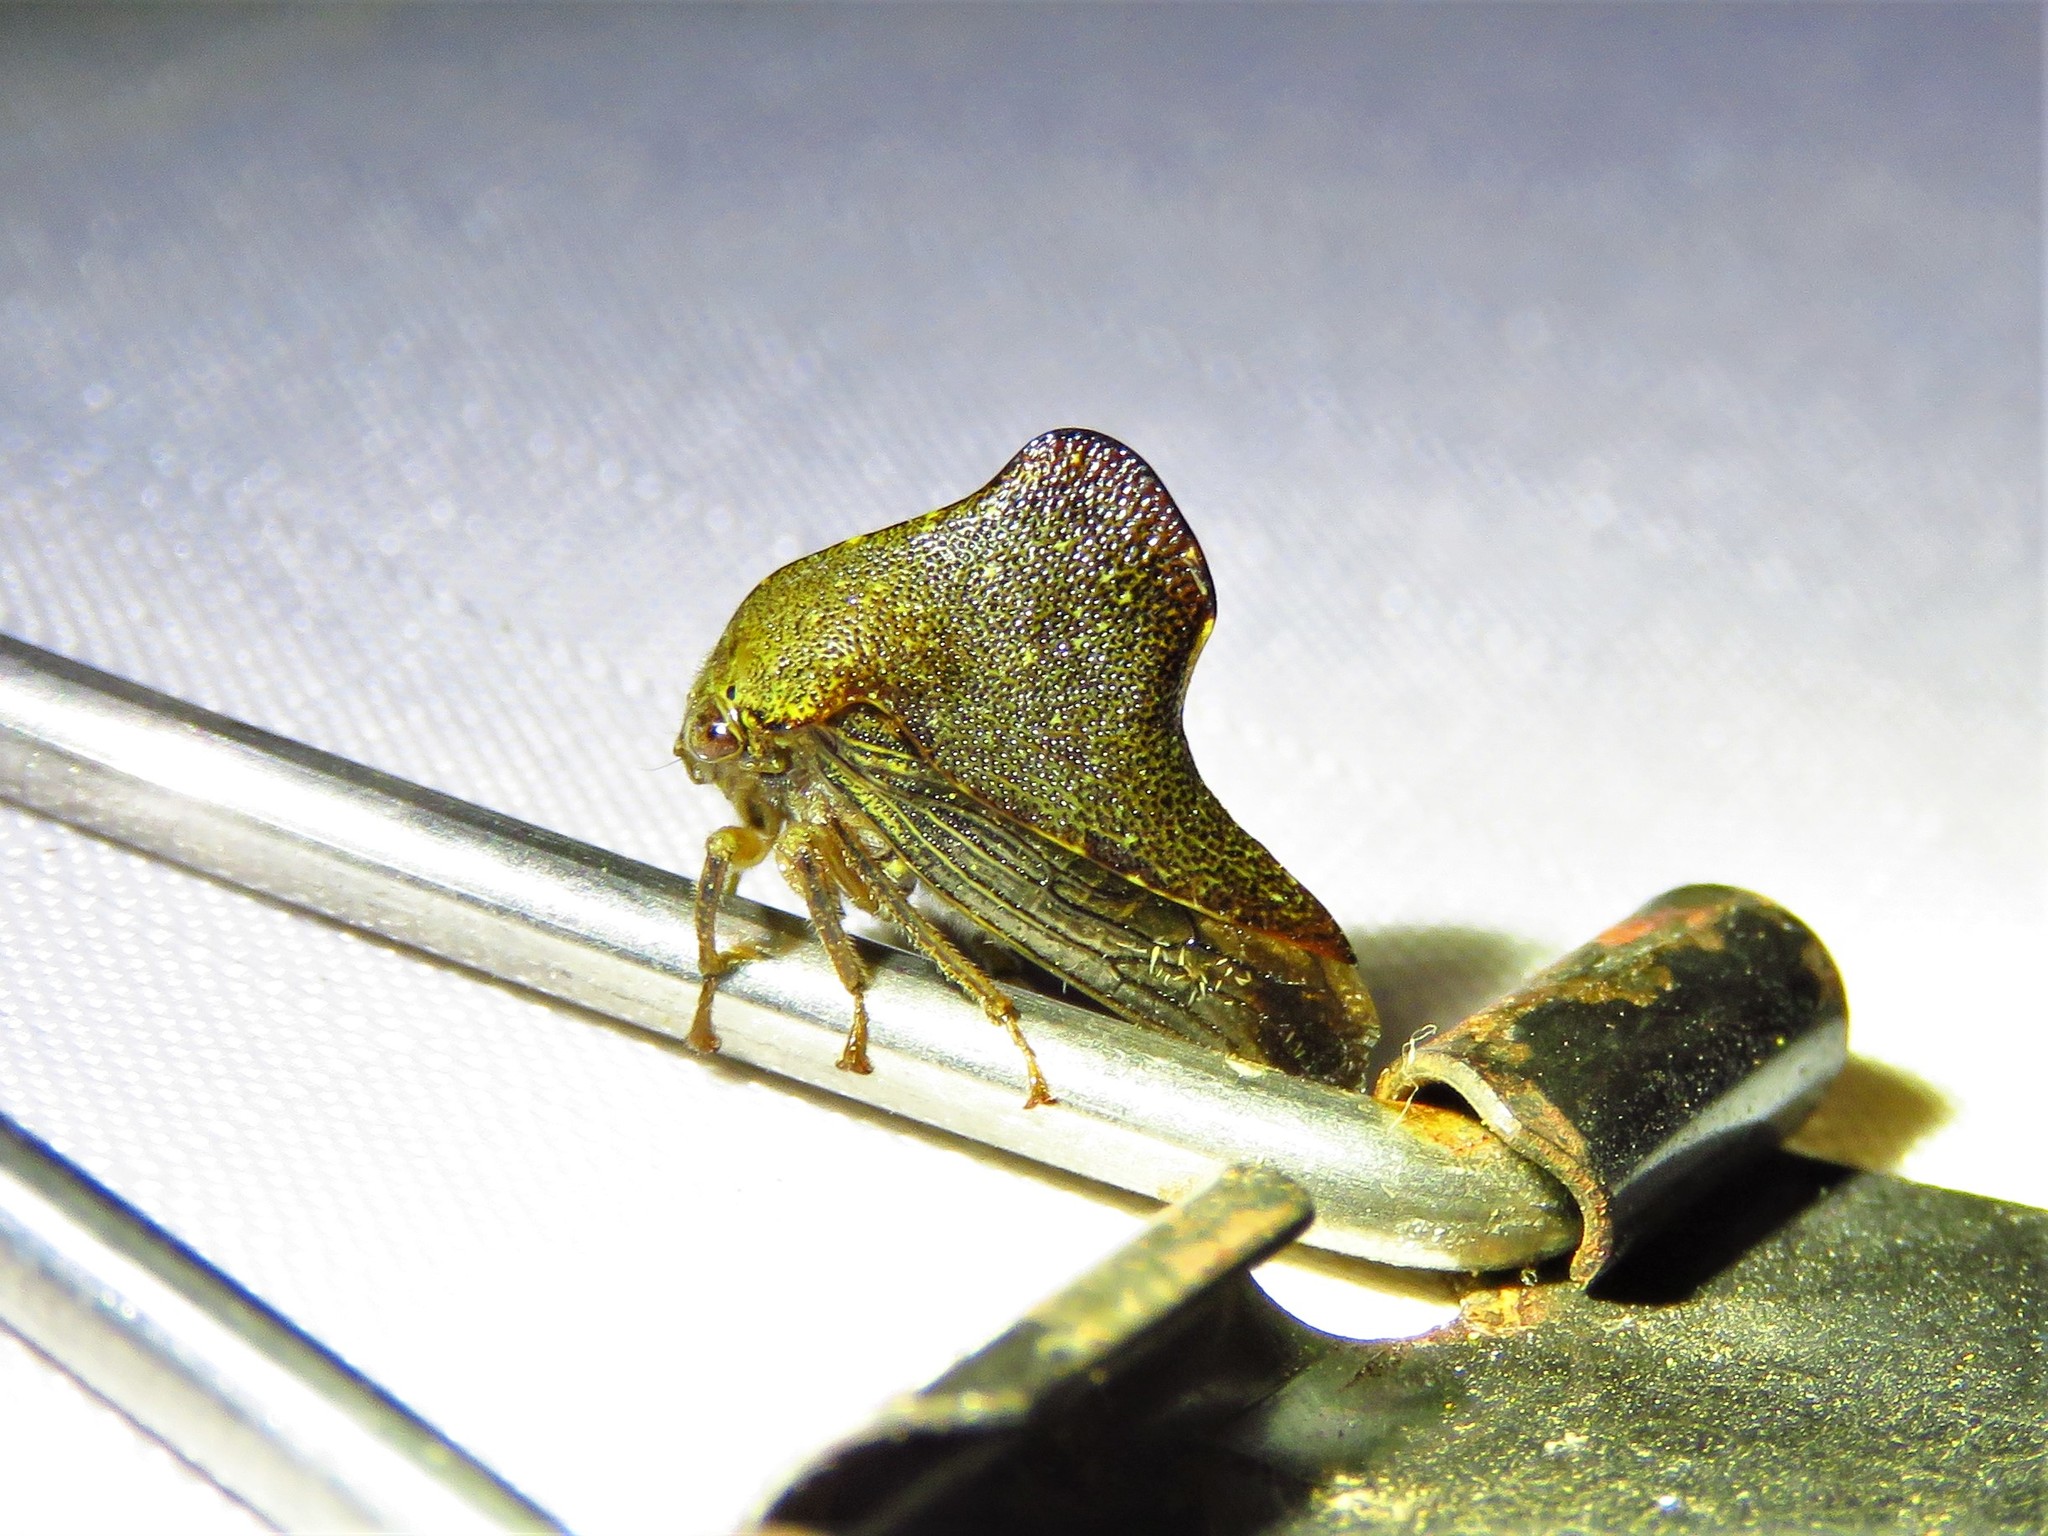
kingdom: Animalia
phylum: Arthropoda
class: Insecta
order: Hemiptera
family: Membracidae
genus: Telamona
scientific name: Telamona monticola
